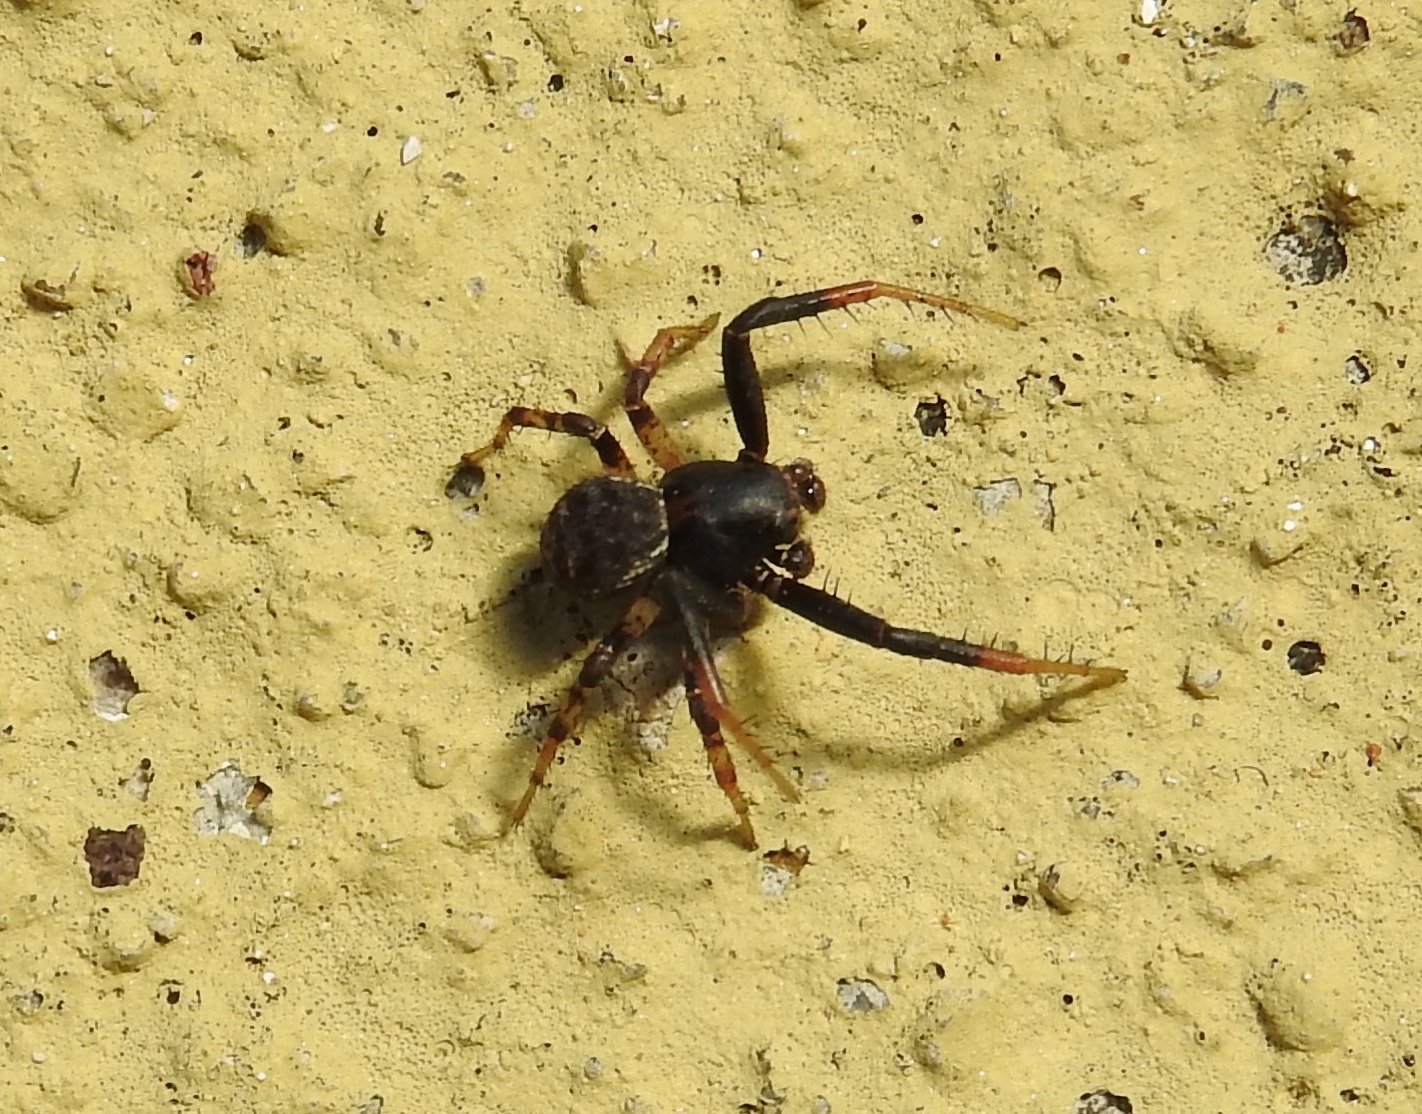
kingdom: Animalia
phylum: Arthropoda
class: Arachnida
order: Araneae
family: Thomisidae
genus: Xysticus
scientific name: Xysticus
